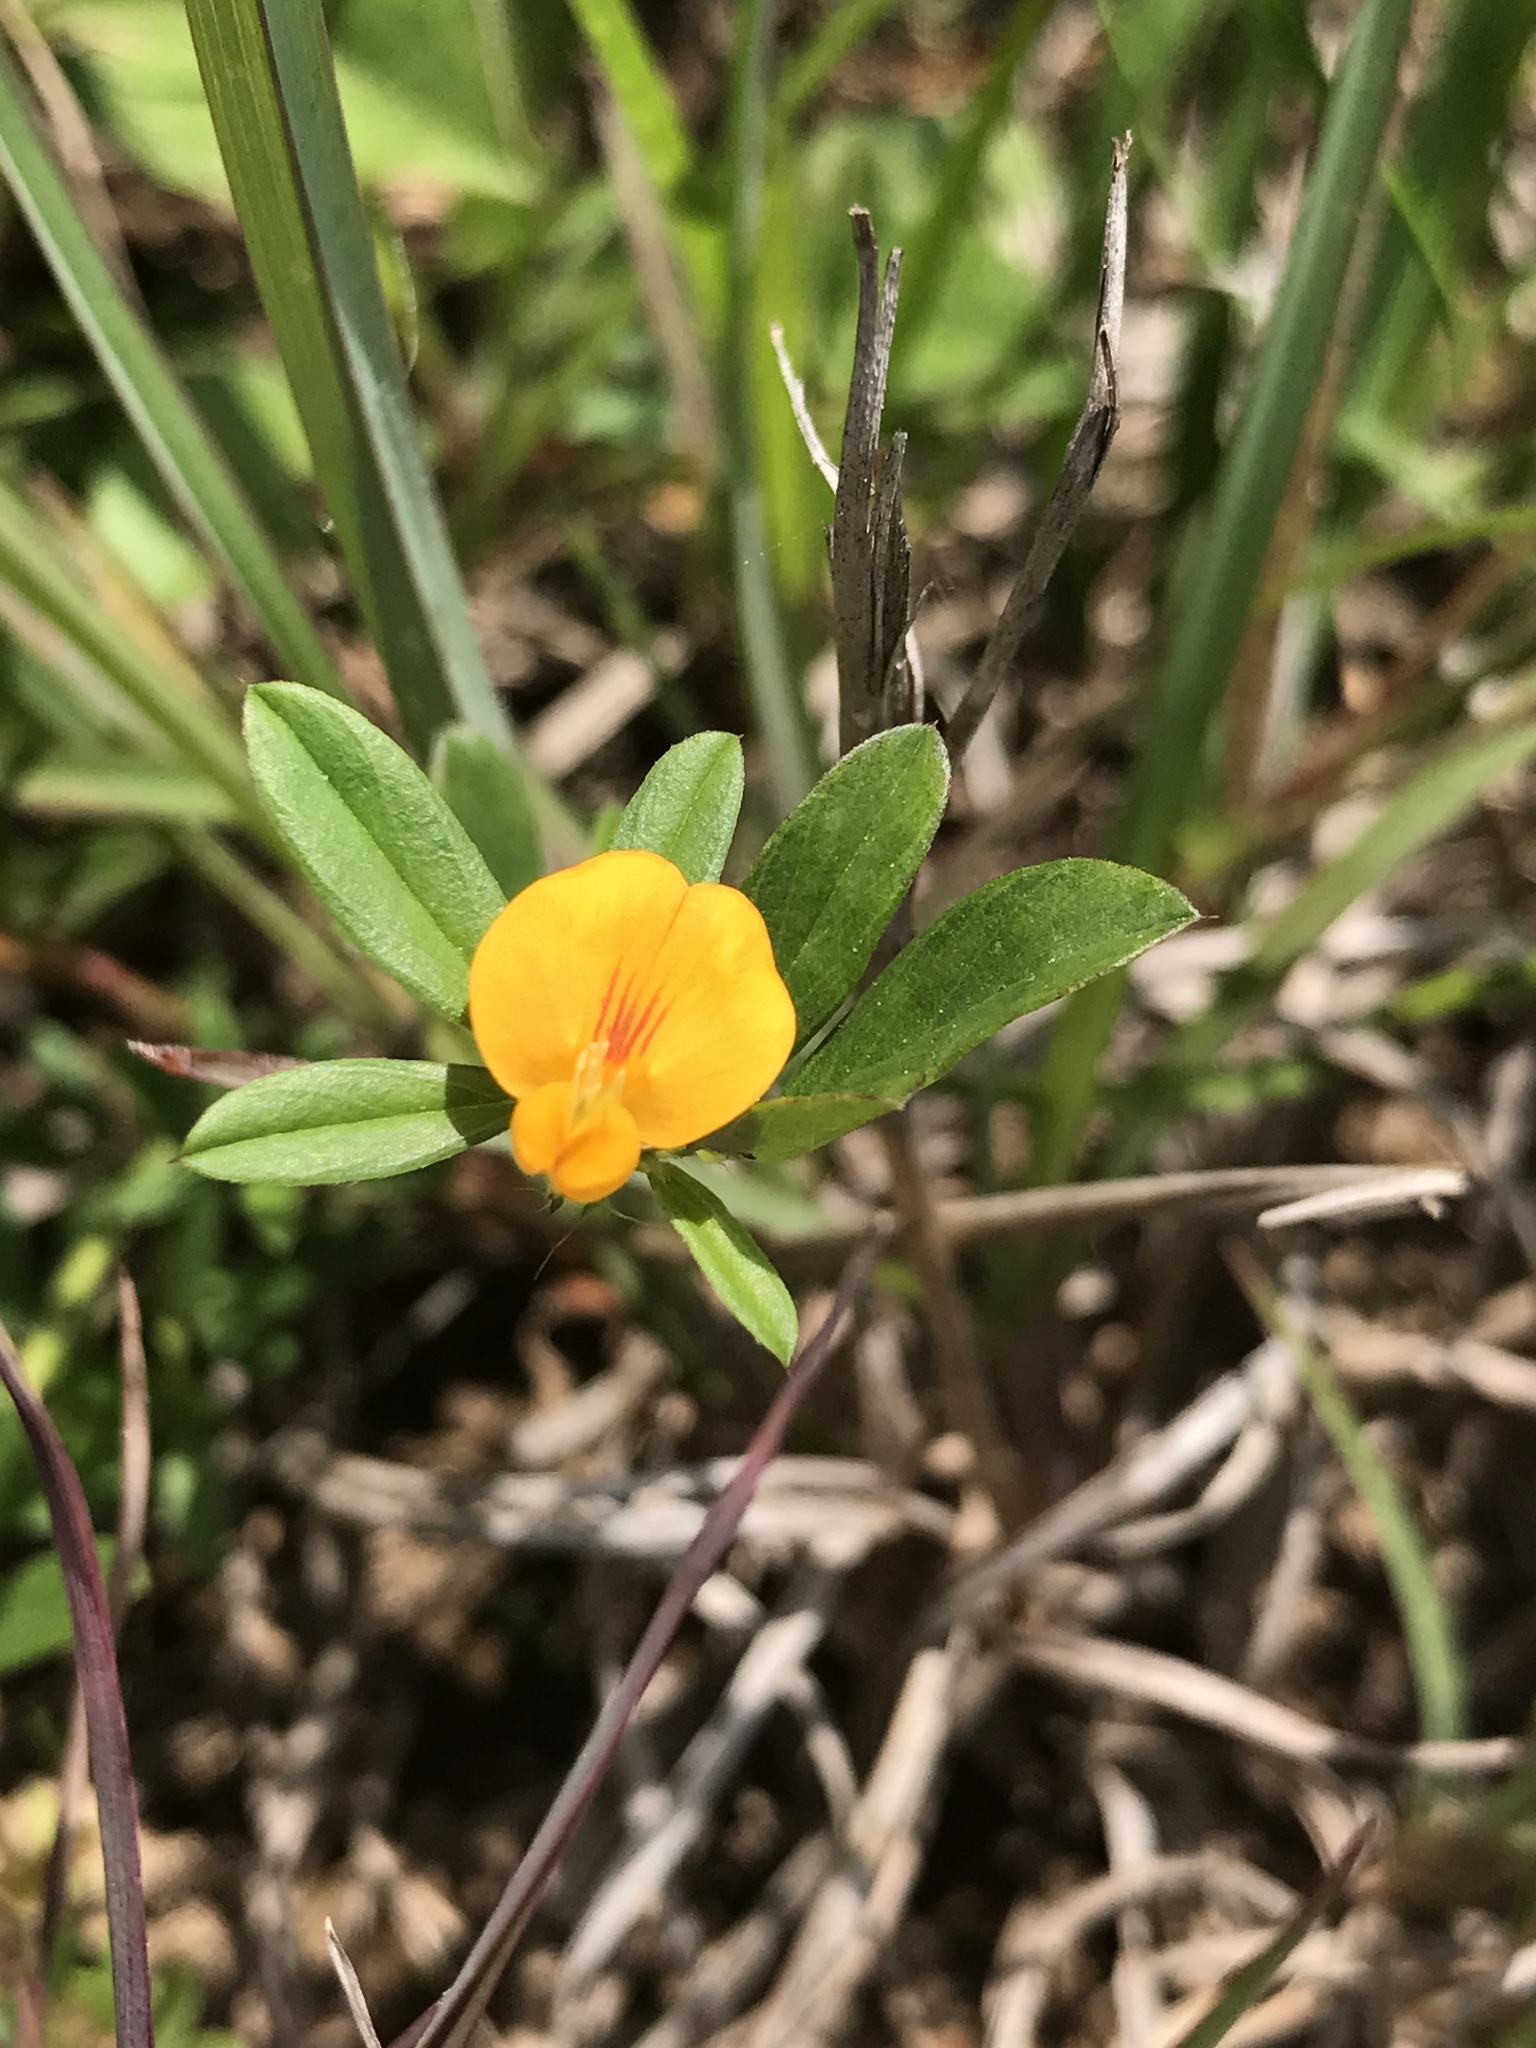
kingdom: Plantae
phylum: Tracheophyta
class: Magnoliopsida
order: Fabales
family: Fabaceae
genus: Stylosanthes
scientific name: Stylosanthes biflora
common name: Two-flower pencil-flower
